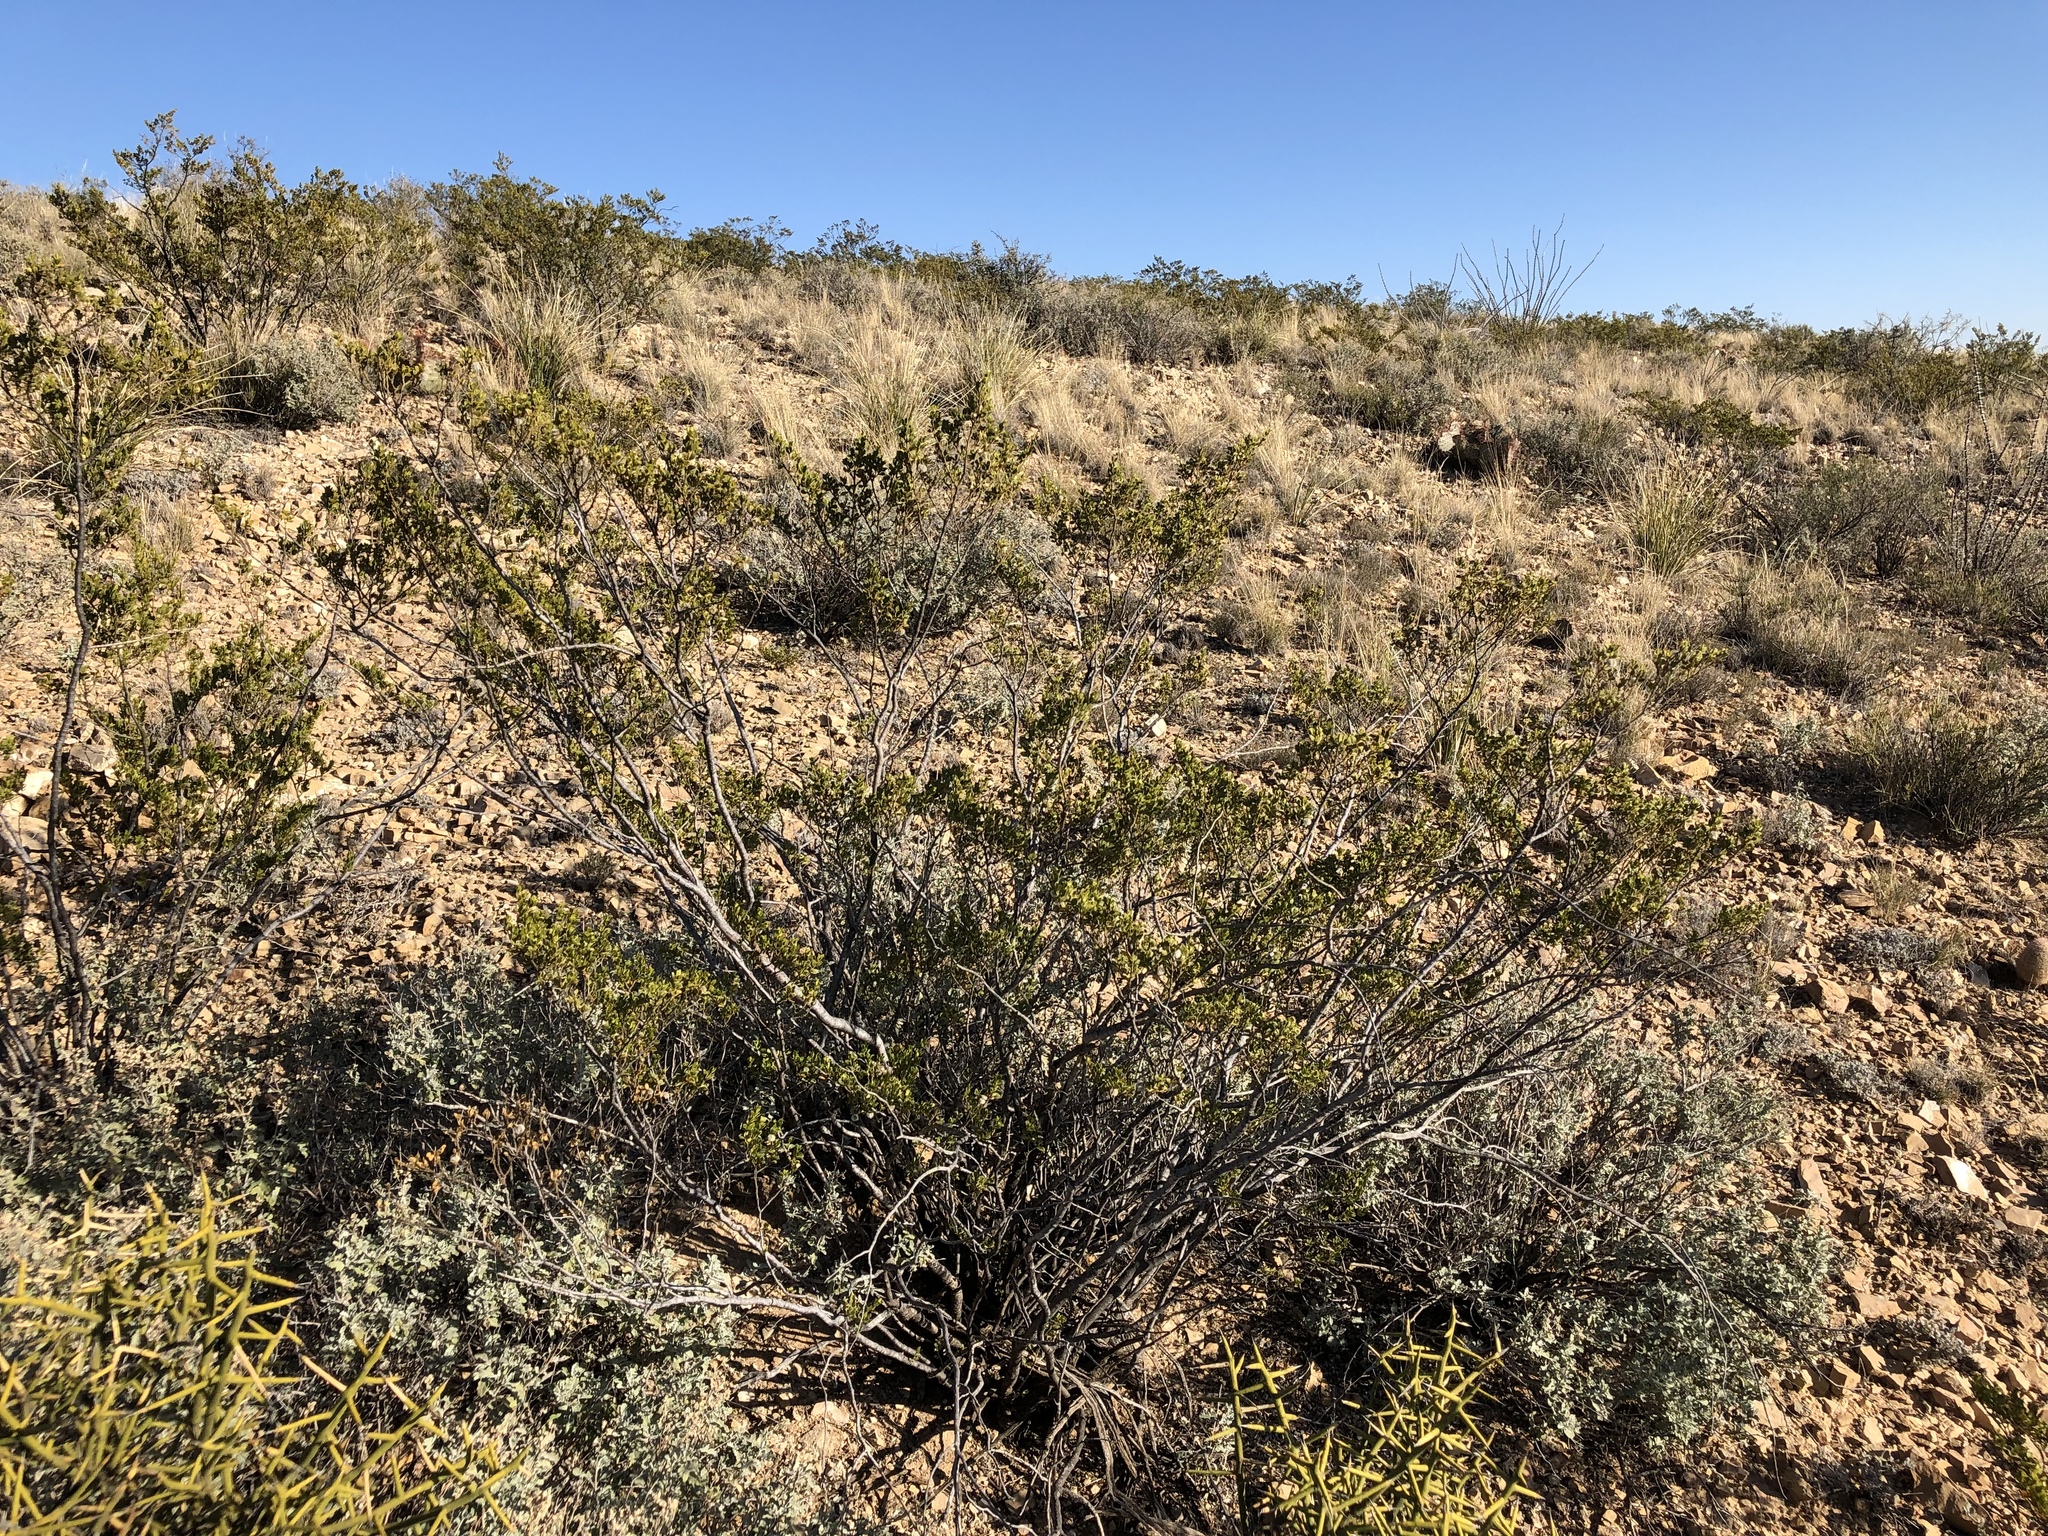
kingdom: Plantae
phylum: Tracheophyta
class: Magnoliopsida
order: Zygophyllales
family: Zygophyllaceae
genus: Larrea
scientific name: Larrea tridentata
